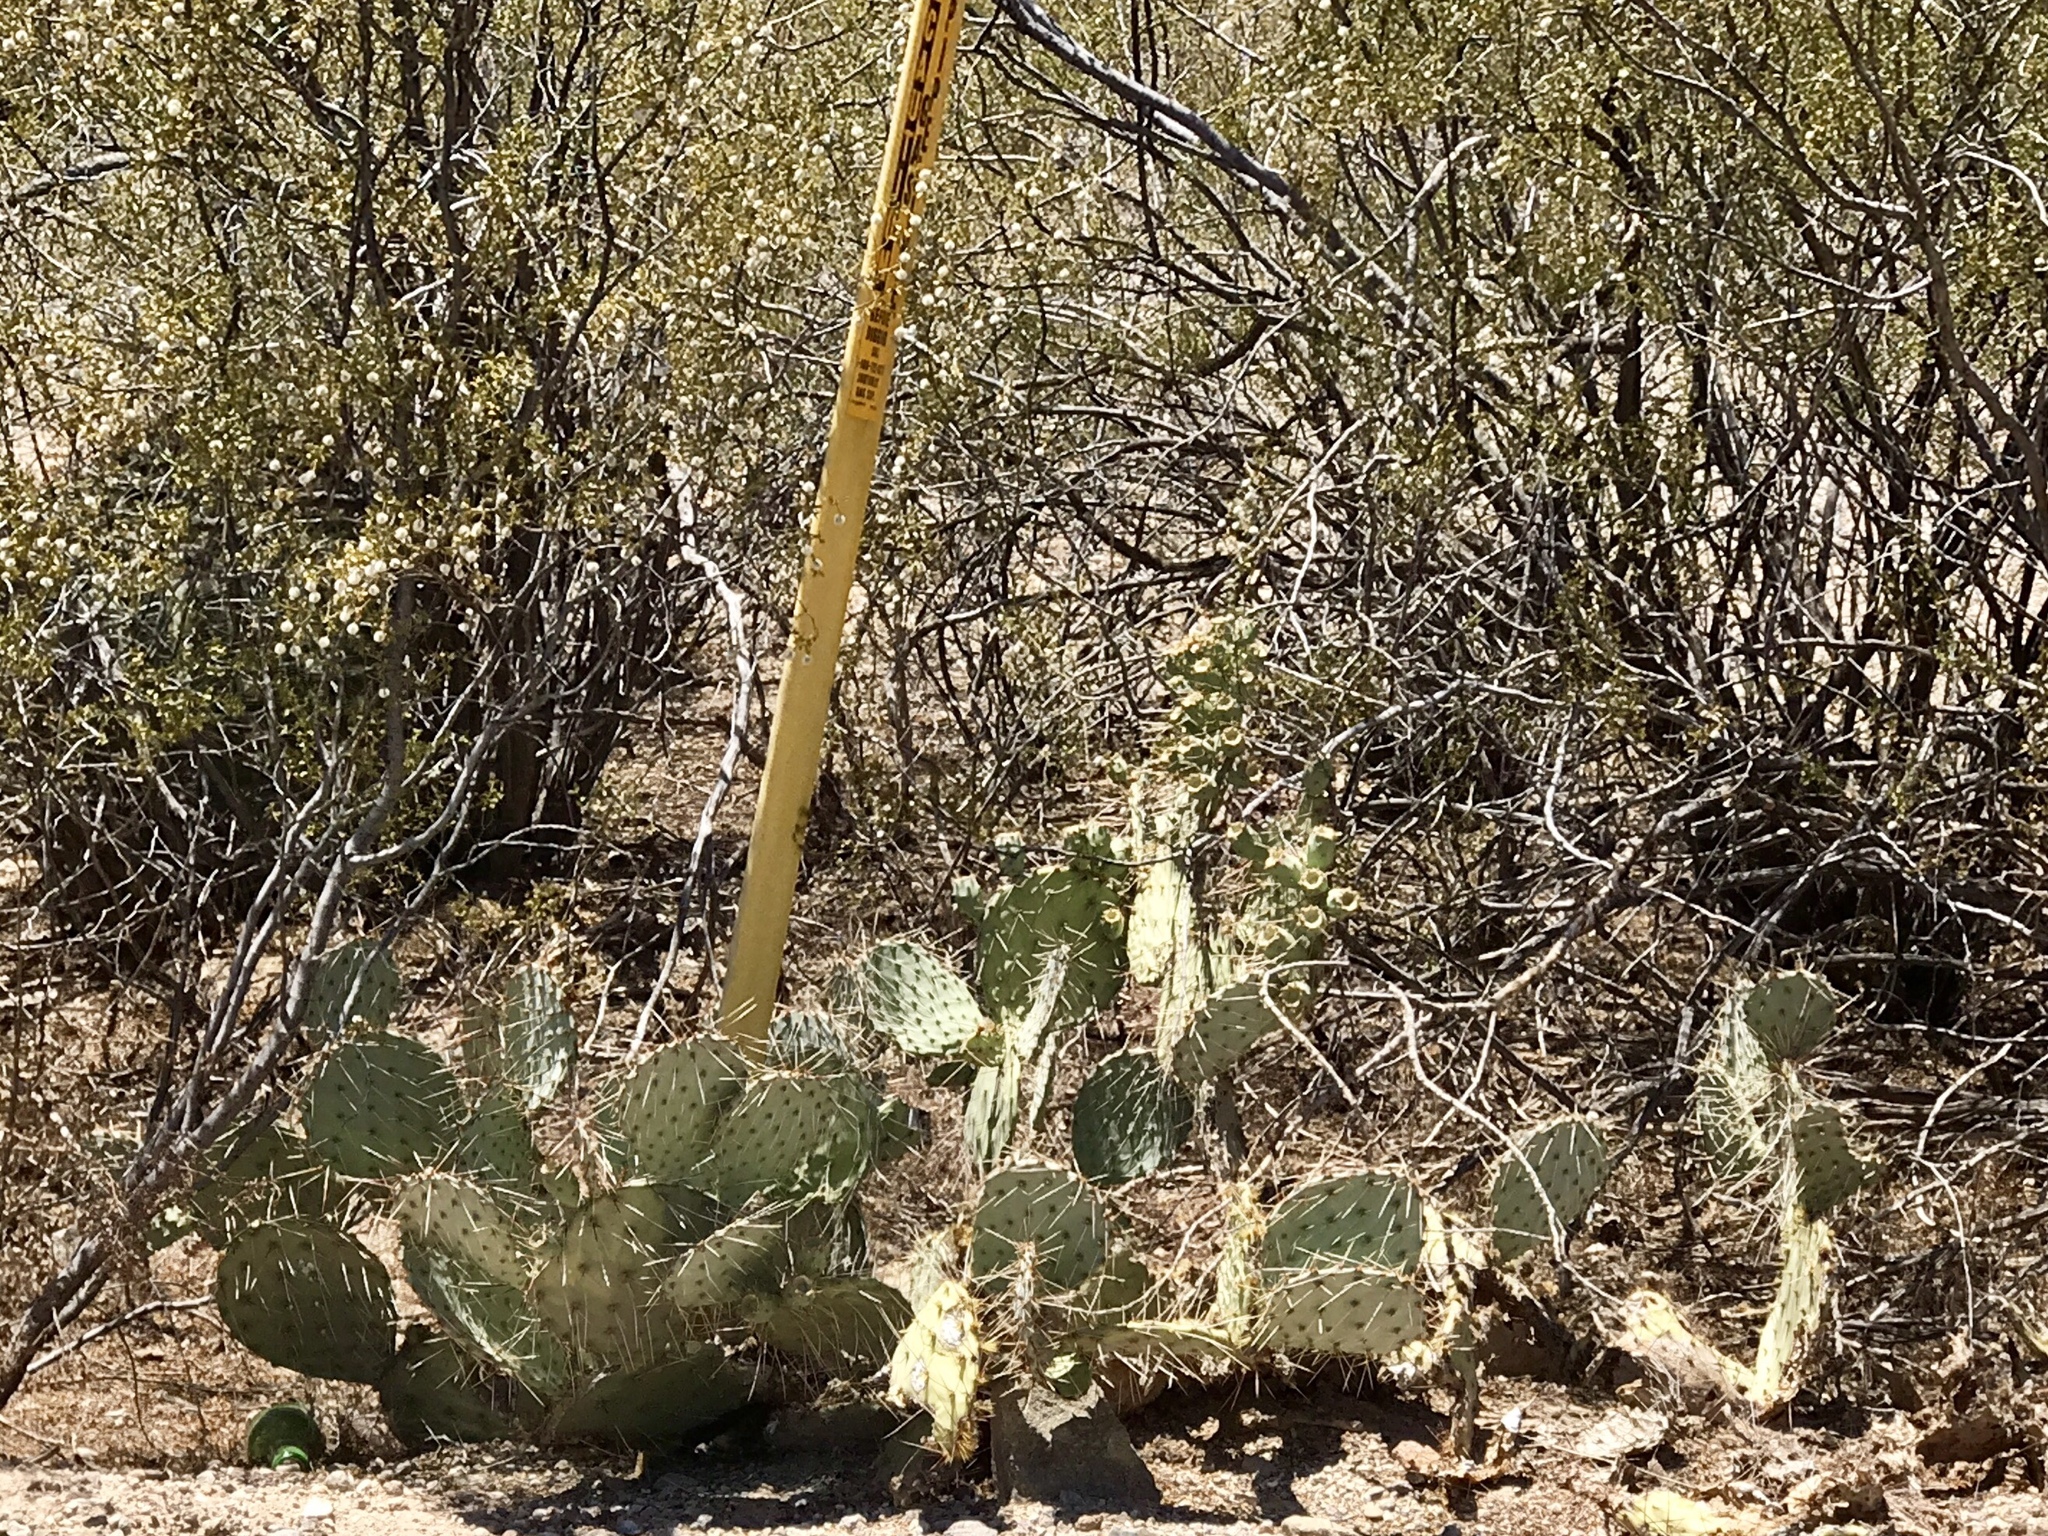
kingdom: Plantae
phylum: Tracheophyta
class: Magnoliopsida
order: Caryophyllales
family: Cactaceae
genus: Opuntia
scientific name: Opuntia engelmannii
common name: Cactus-apple
